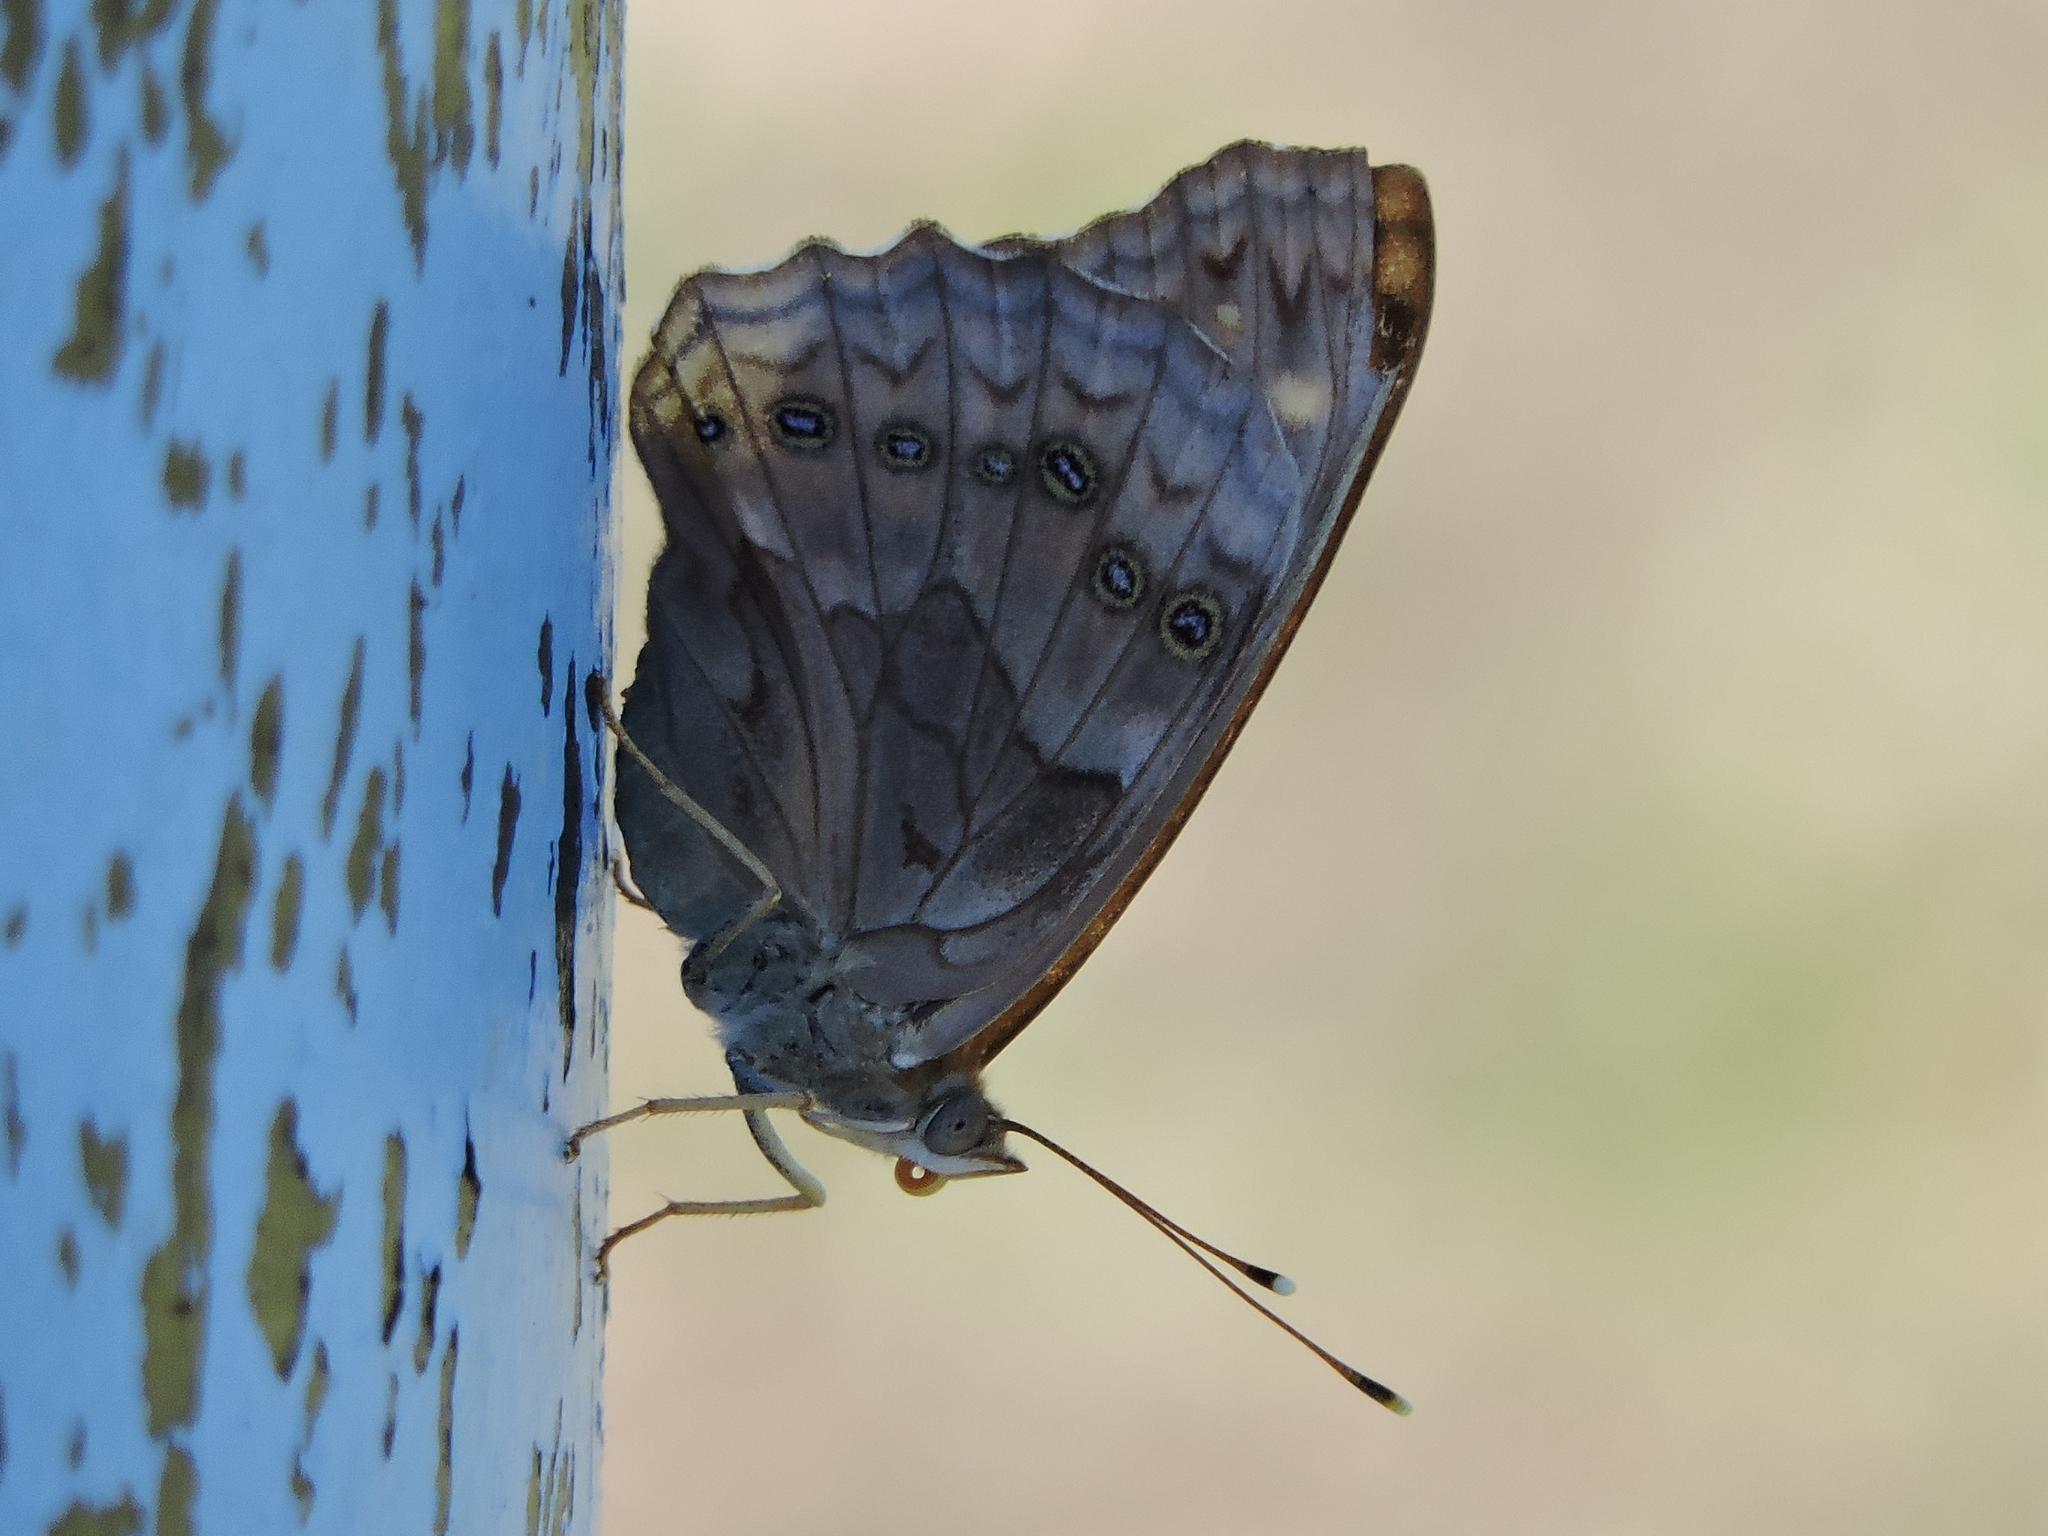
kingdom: Animalia
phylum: Arthropoda
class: Insecta
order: Lepidoptera
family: Nymphalidae
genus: Asterocampa
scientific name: Asterocampa clyton
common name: Tawny emperor
